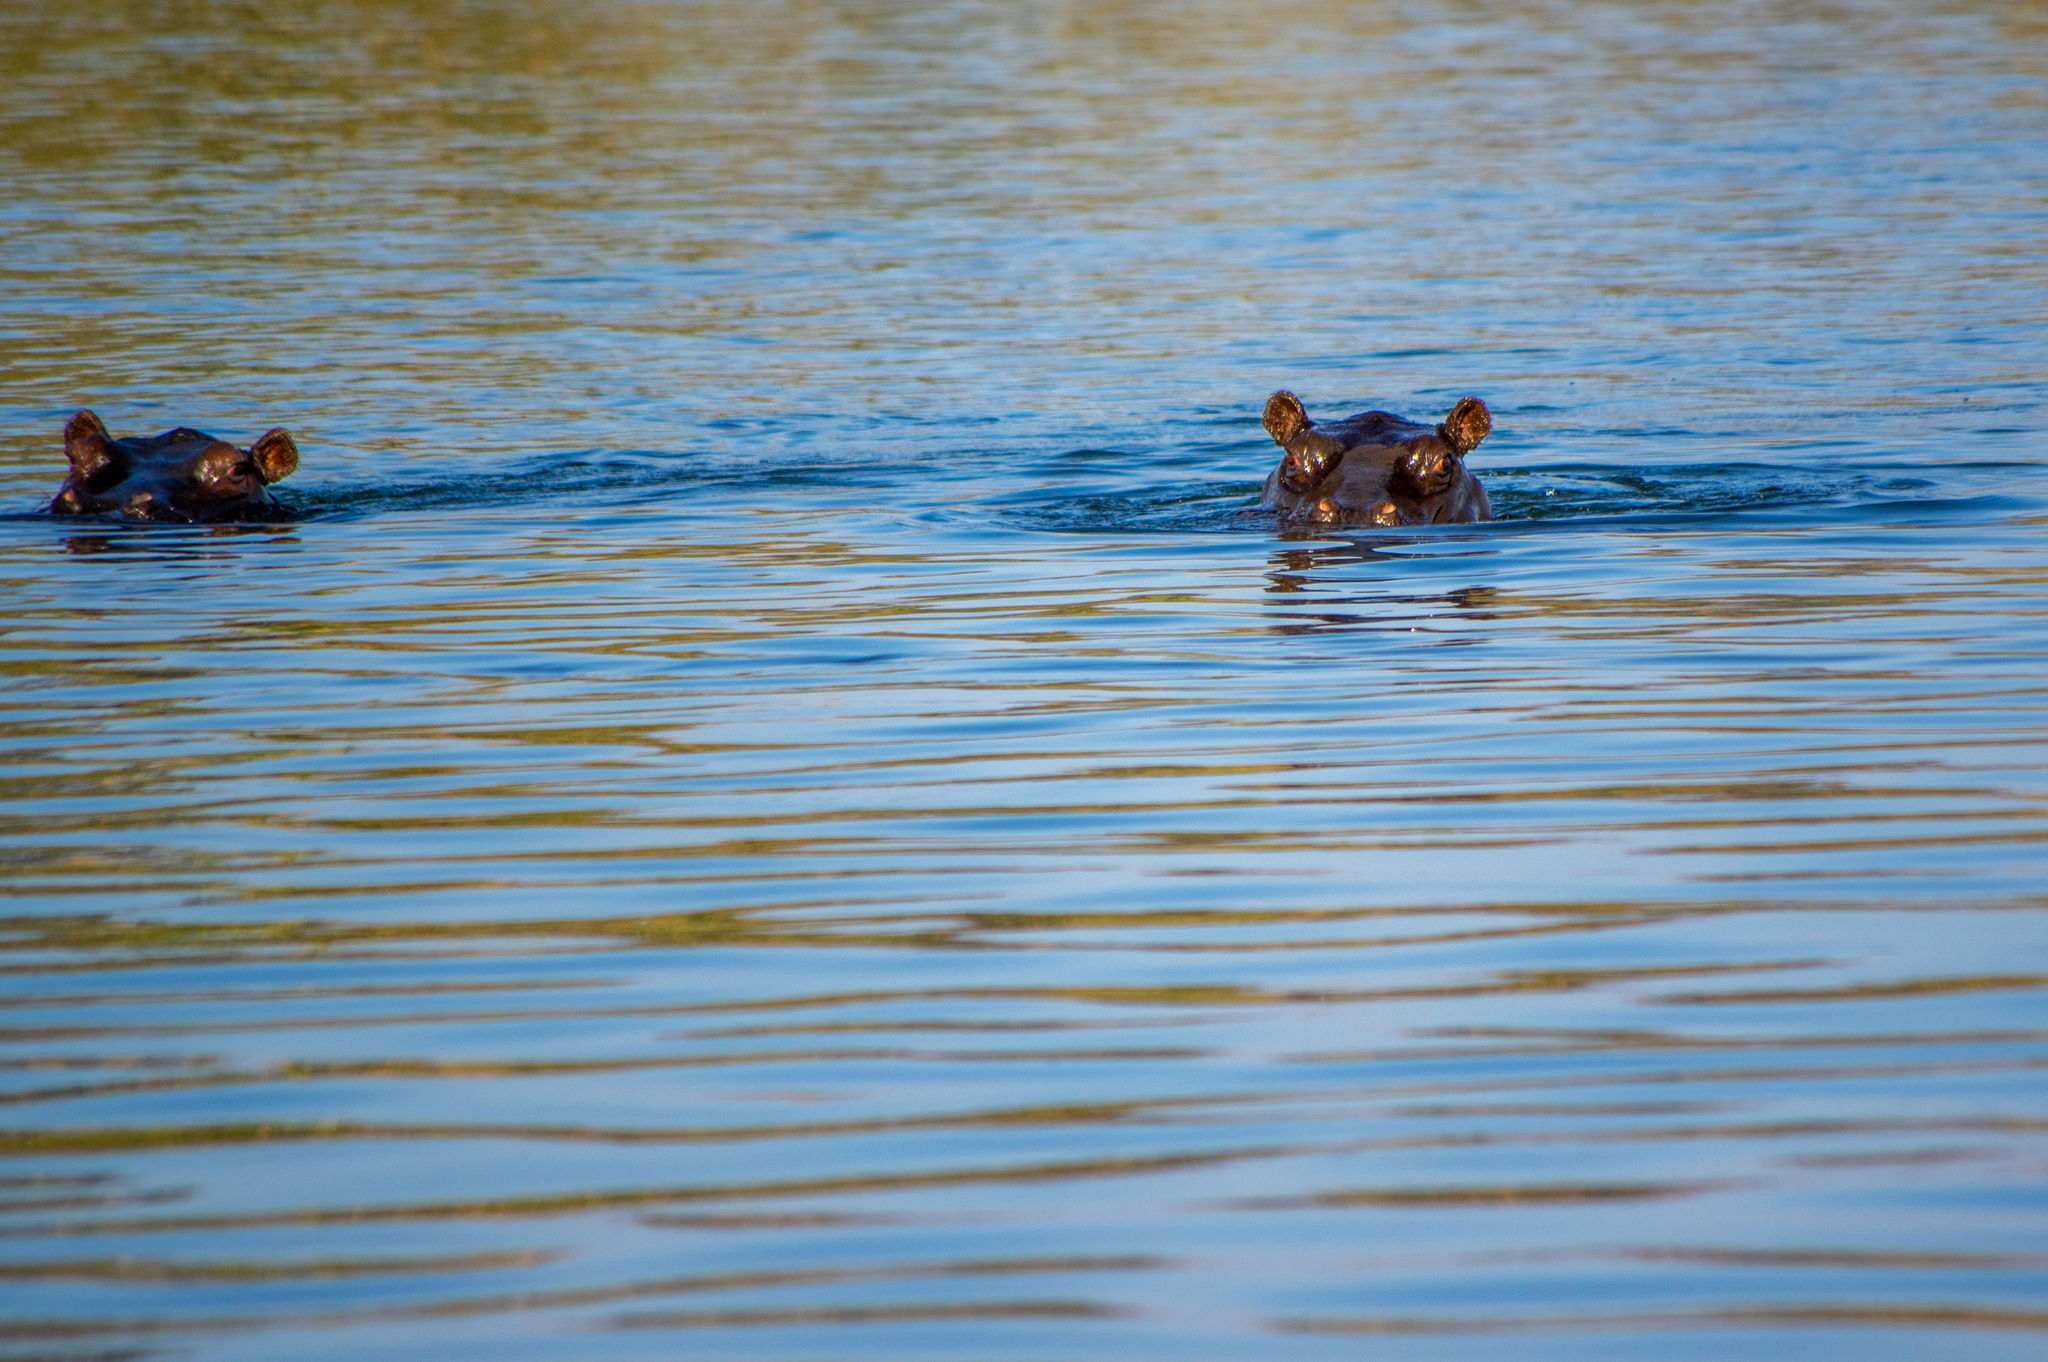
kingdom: Animalia
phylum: Chordata
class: Mammalia
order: Artiodactyla
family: Hippopotamidae
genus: Hippopotamus
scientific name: Hippopotamus amphibius
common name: Common hippopotamus
